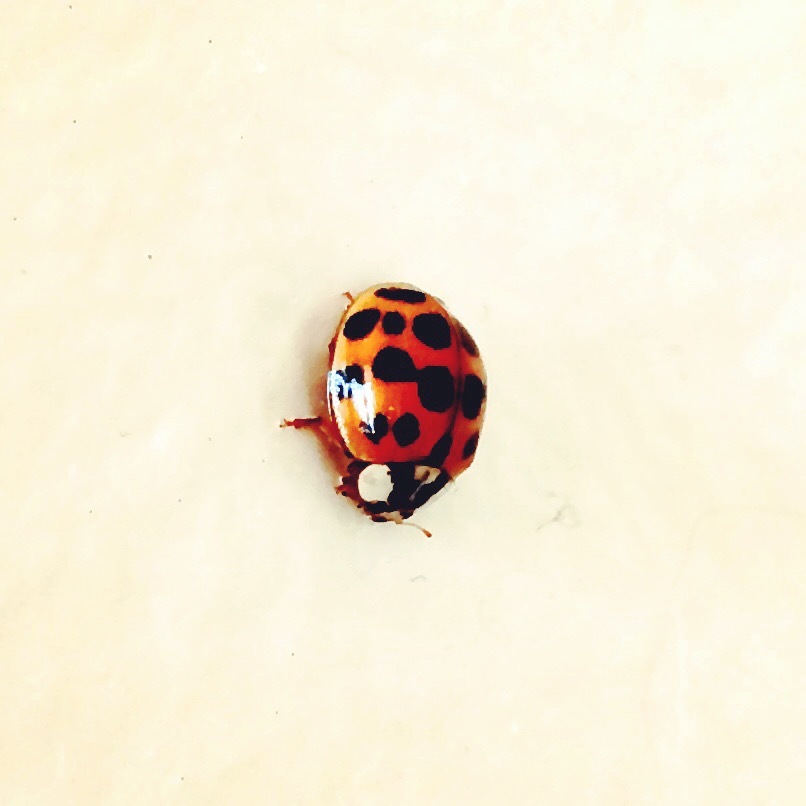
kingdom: Animalia
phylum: Arthropoda
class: Insecta
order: Coleoptera
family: Coccinellidae
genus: Harmonia
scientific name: Harmonia axyridis
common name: Harlequin ladybird
